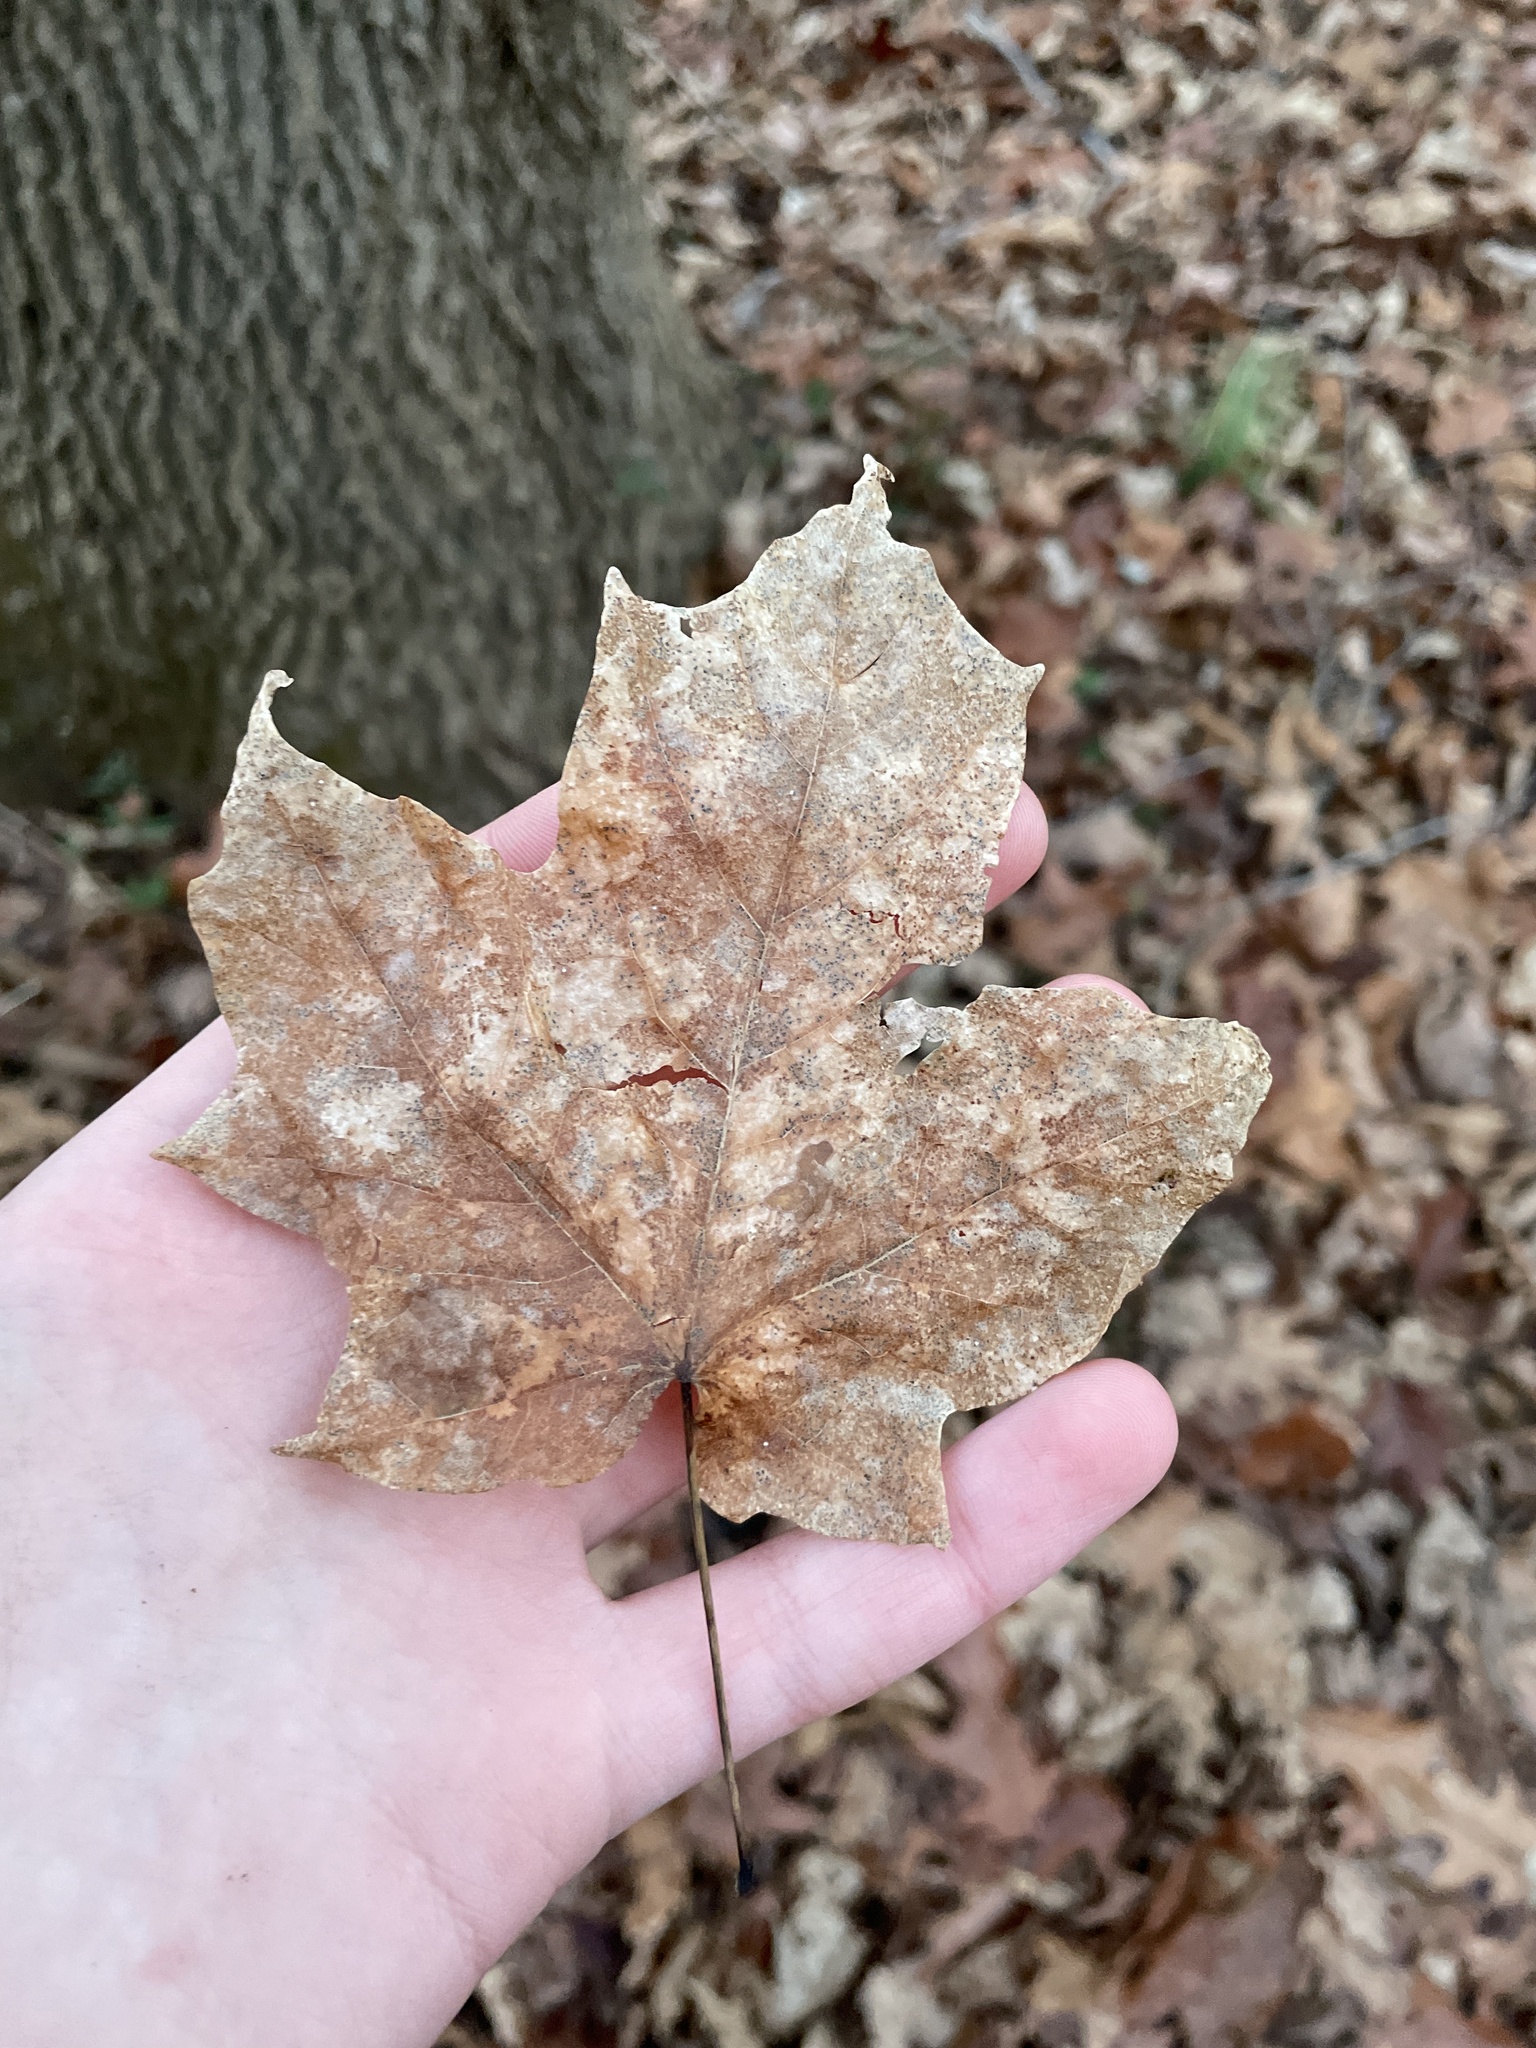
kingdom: Plantae
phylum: Tracheophyta
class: Magnoliopsida
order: Sapindales
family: Sapindaceae
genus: Acer
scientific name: Acer saccharum
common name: Sugar maple
